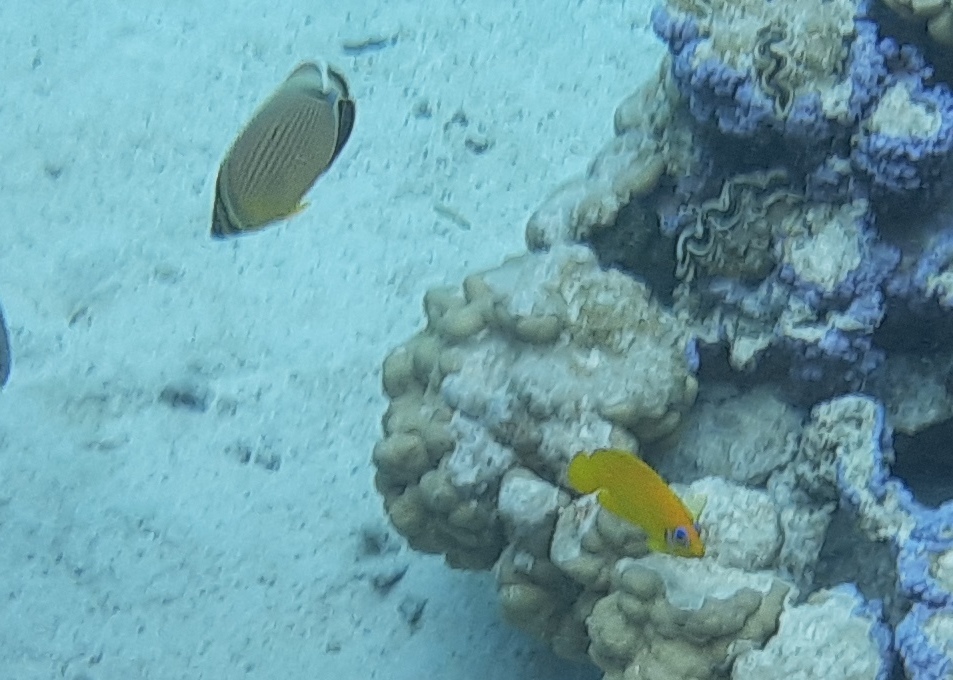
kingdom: Animalia
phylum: Chordata
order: Perciformes
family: Chaetodontidae
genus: Chaetodon
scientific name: Chaetodon lunulatus
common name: Redfin butterflyfish
